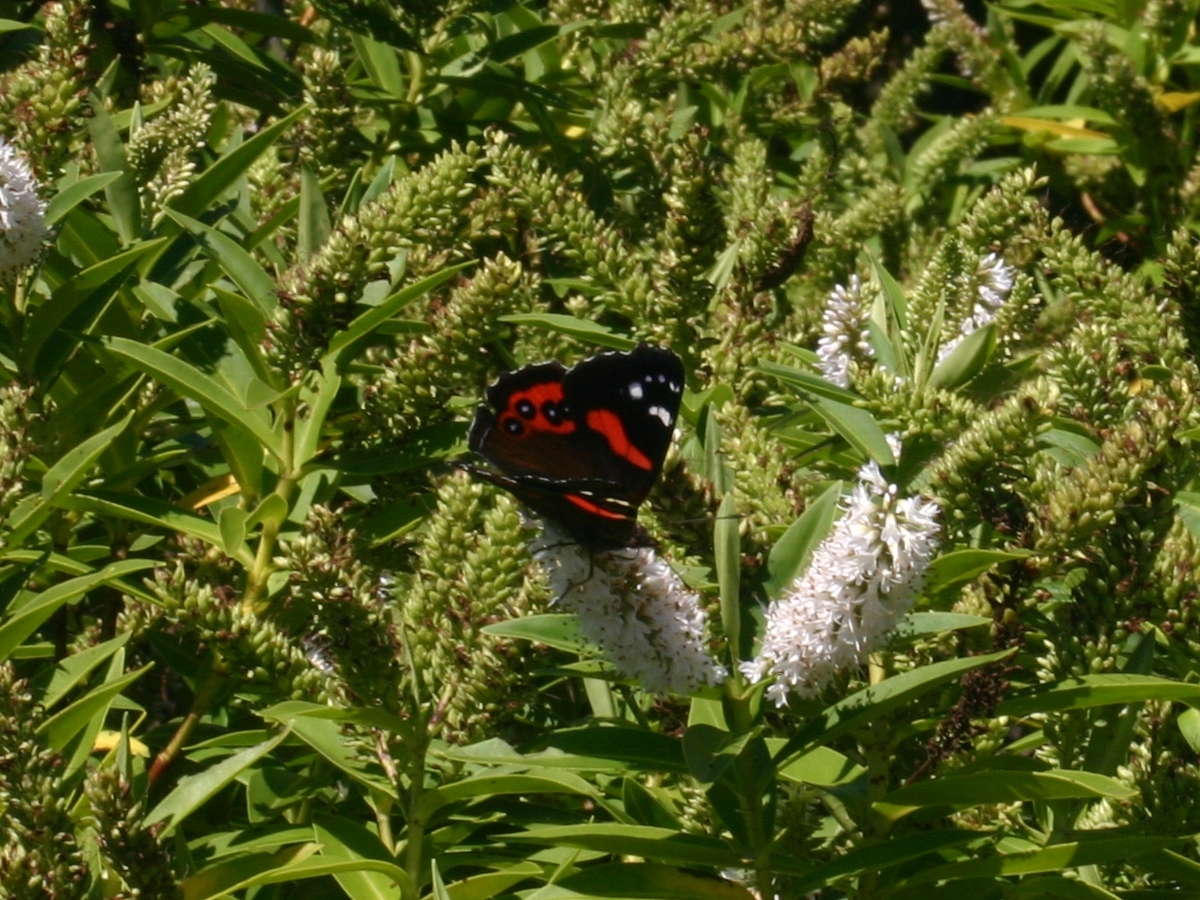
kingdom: Animalia
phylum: Arthropoda
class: Insecta
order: Lepidoptera
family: Nymphalidae
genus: Vanessa
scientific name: Vanessa gonerilla
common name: New zealand red admiral
